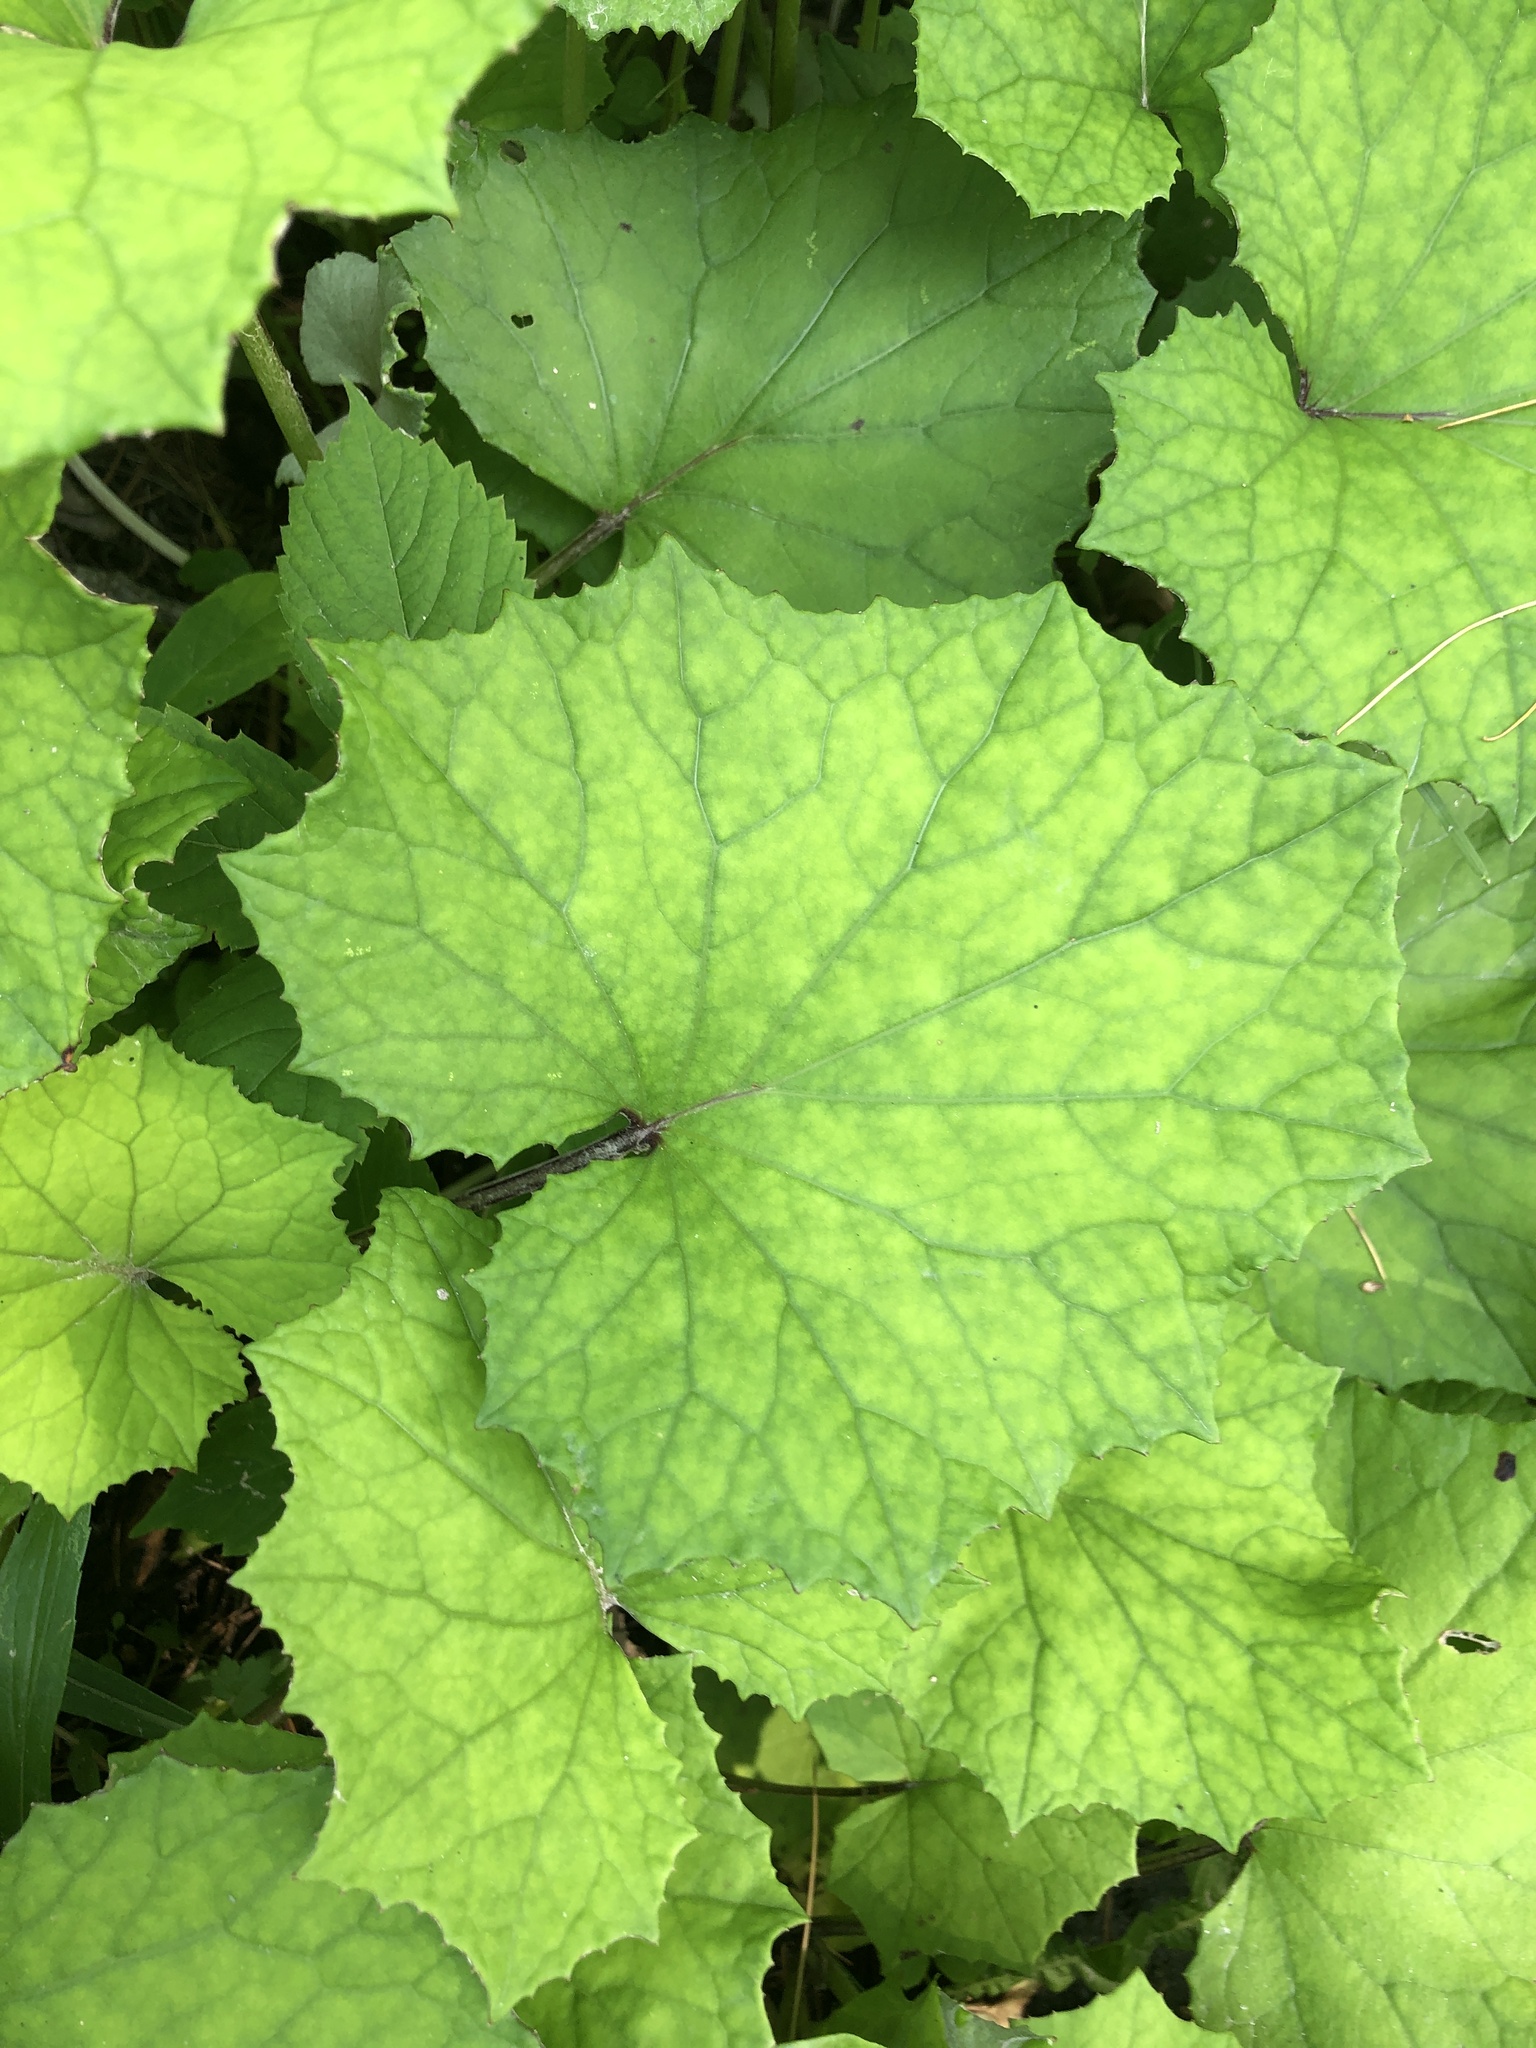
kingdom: Plantae
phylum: Tracheophyta
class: Magnoliopsida
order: Asterales
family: Asteraceae
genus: Tussilago
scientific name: Tussilago farfara
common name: Coltsfoot
